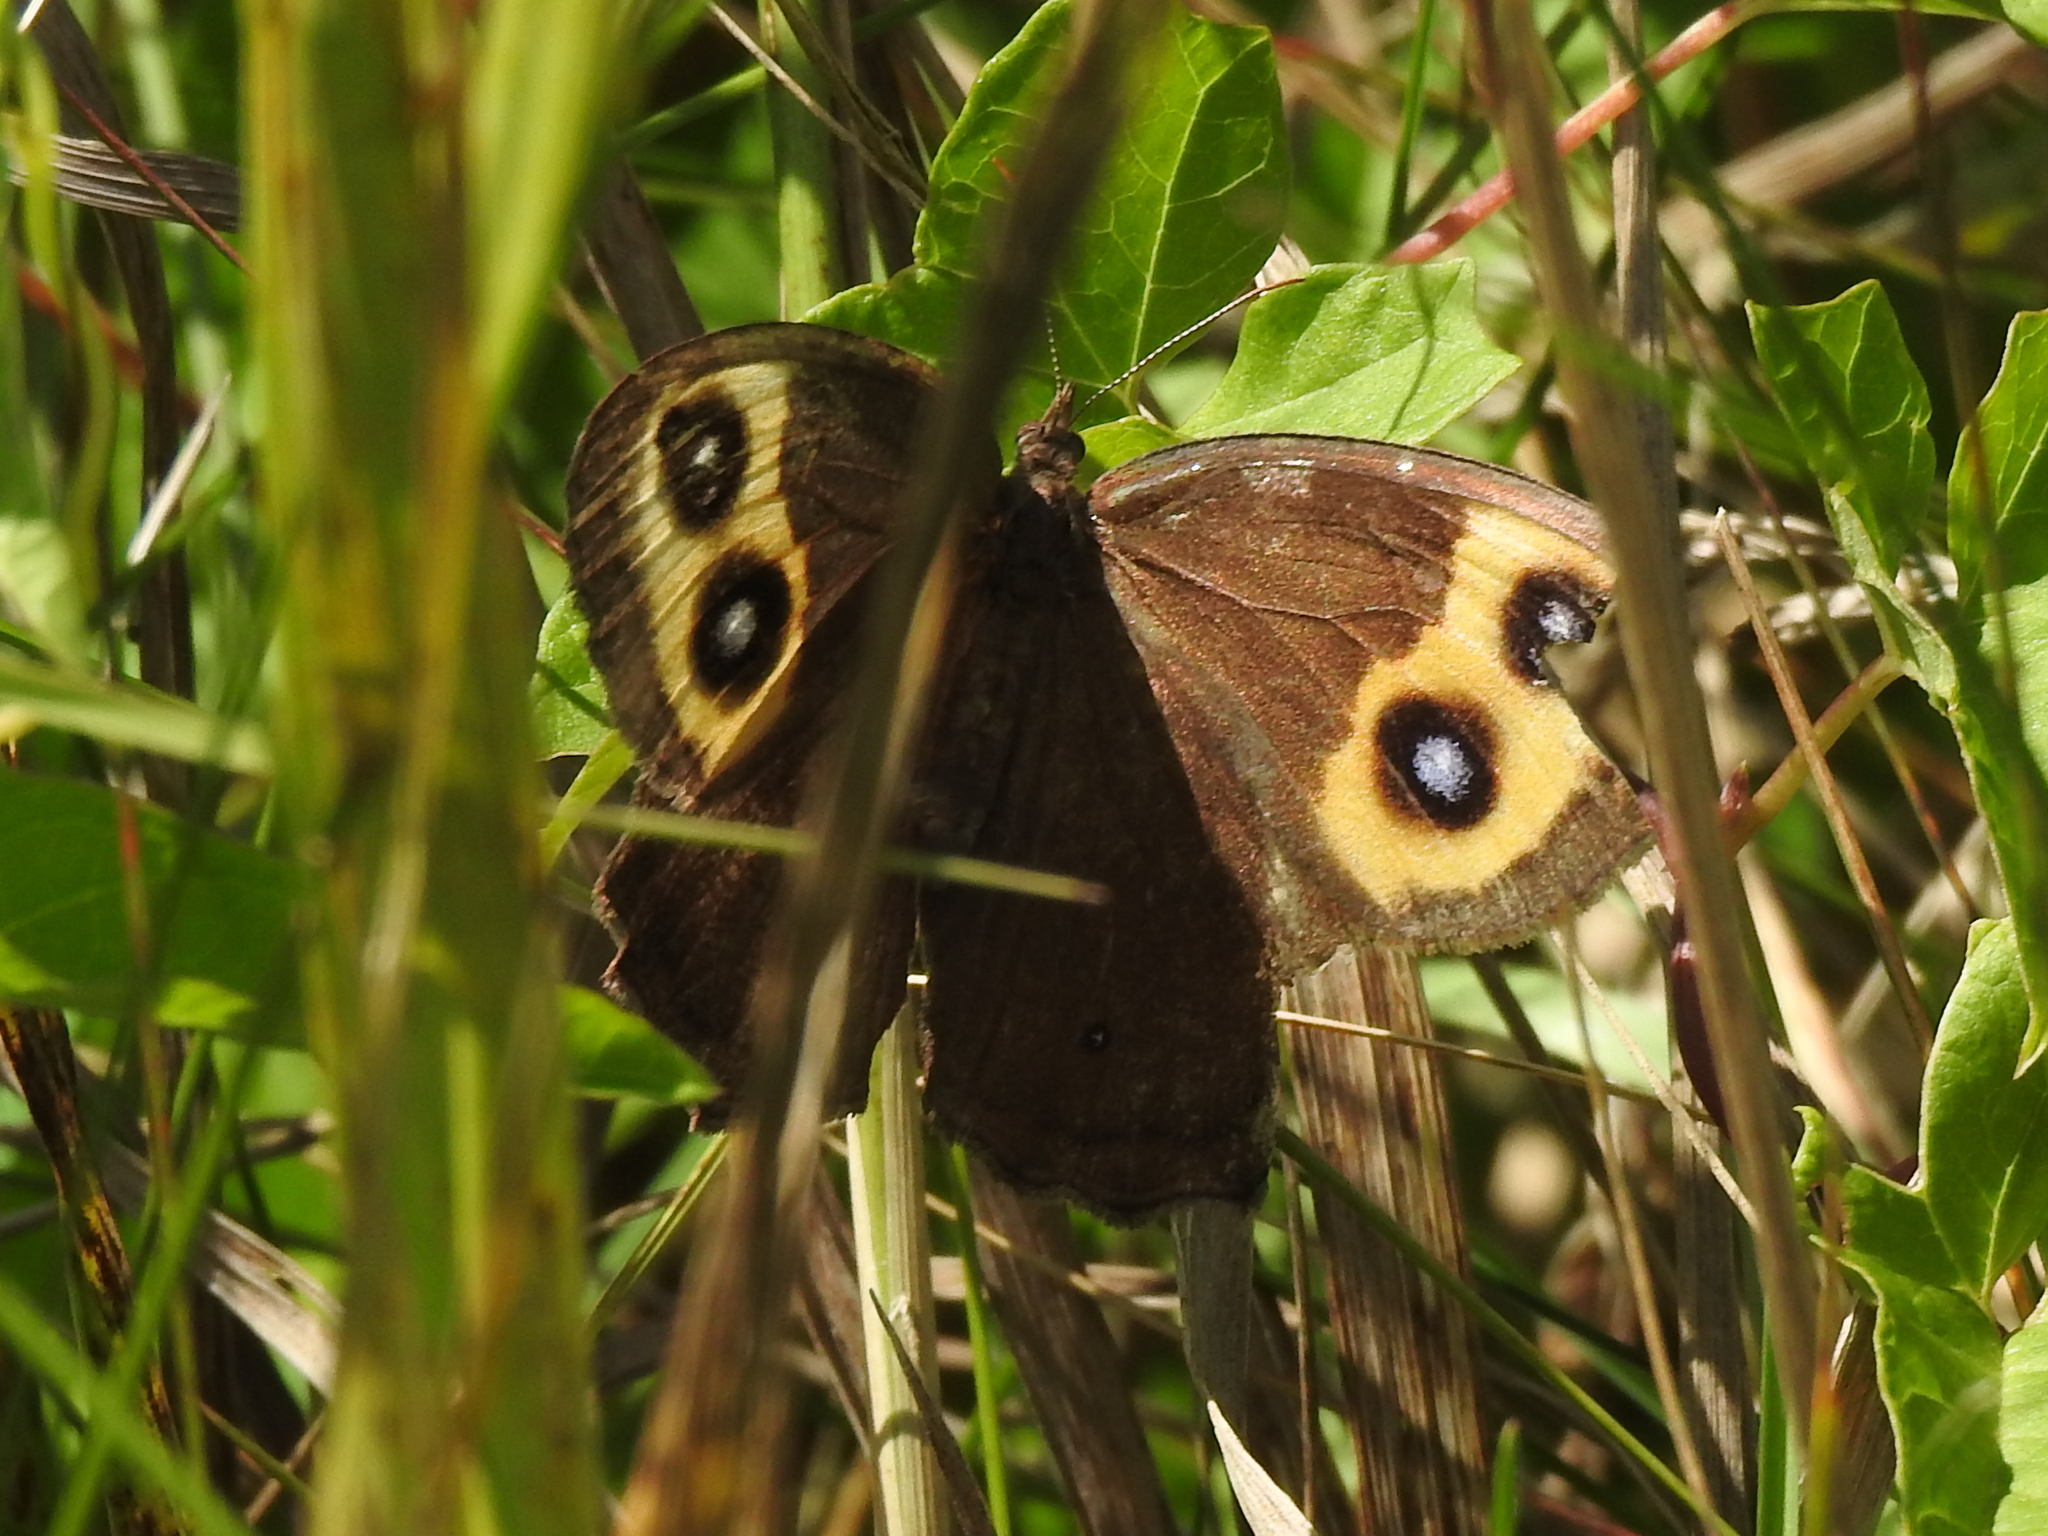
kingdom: Animalia
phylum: Arthropoda
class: Insecta
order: Lepidoptera
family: Nymphalidae
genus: Cercyonis
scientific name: Cercyonis pegala
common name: Common wood-nymph
